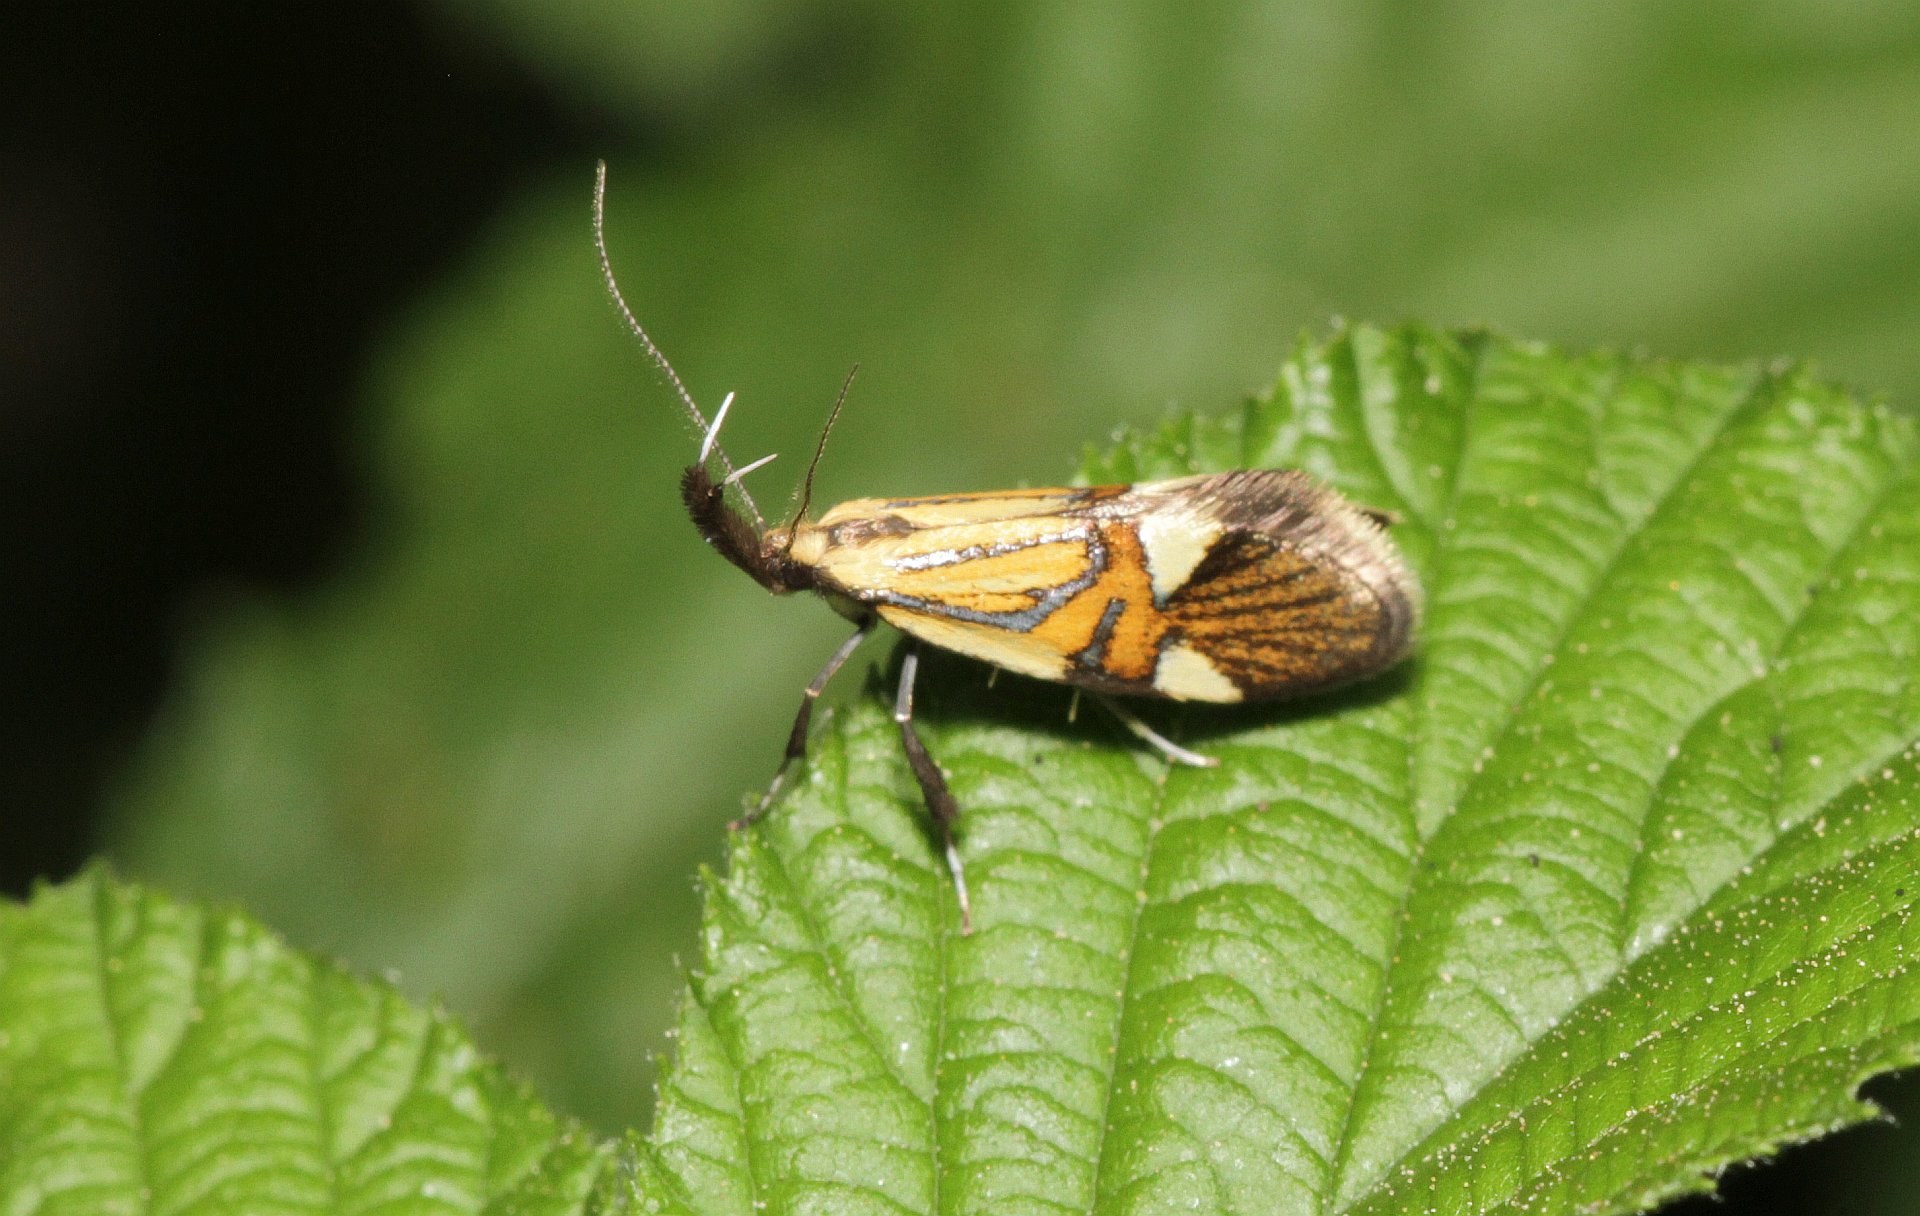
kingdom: Animalia
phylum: Arthropoda
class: Insecta
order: Lepidoptera
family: Oecophoridae
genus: Oecophora
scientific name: Oecophora Alabonia geoffrella
